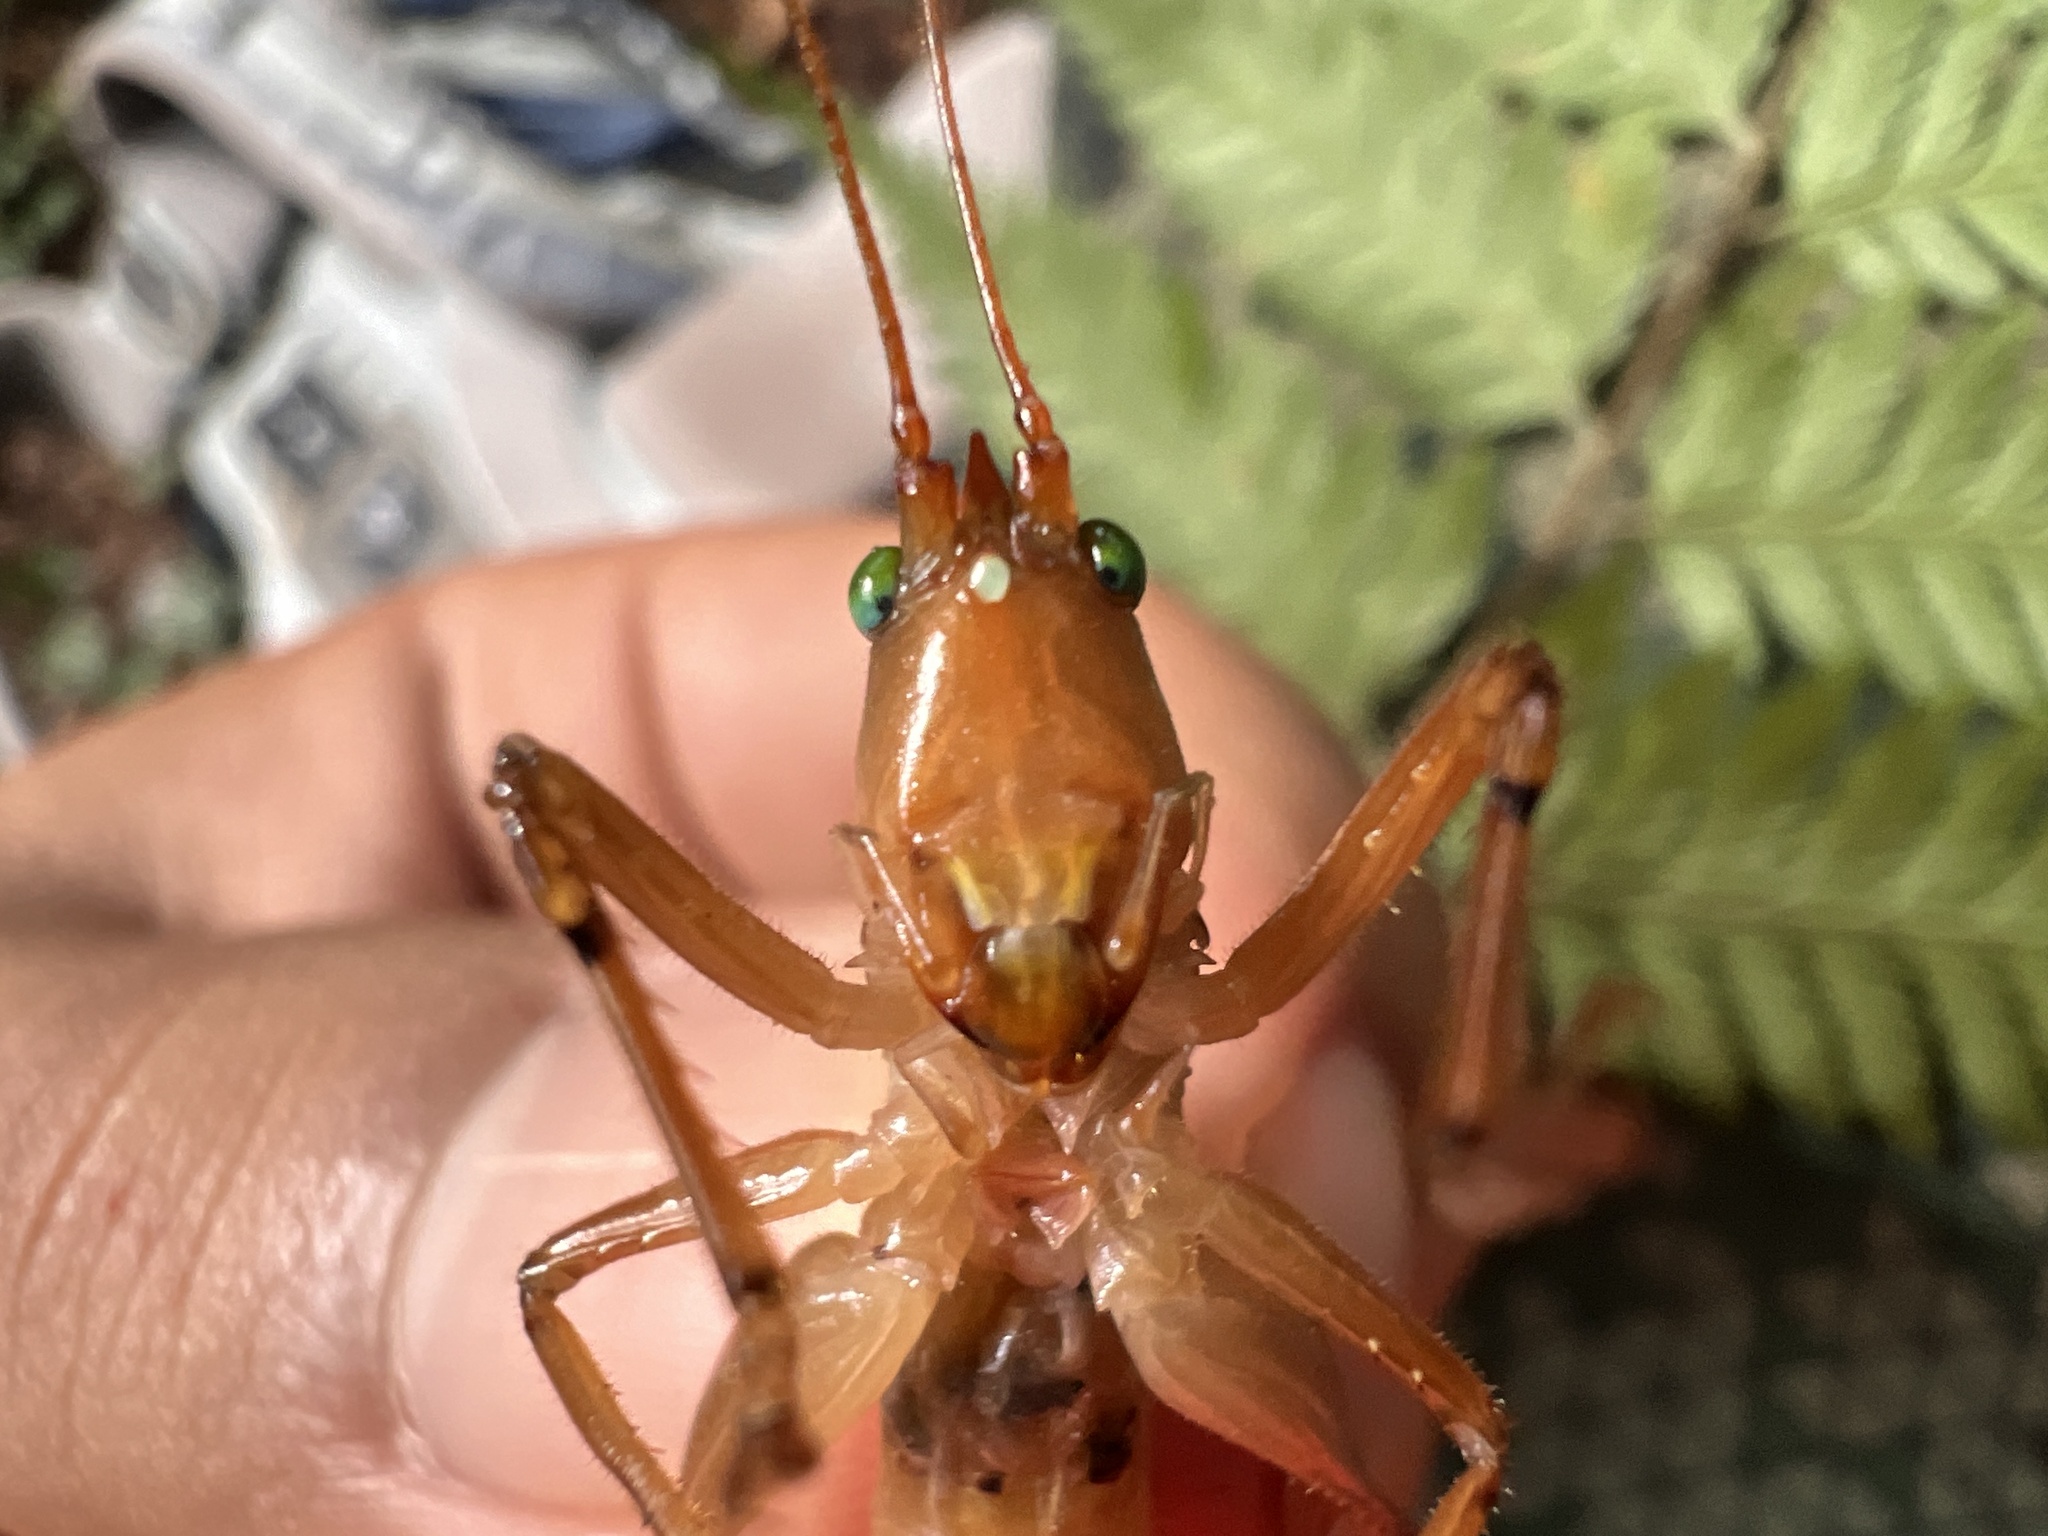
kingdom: Animalia
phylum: Arthropoda
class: Insecta
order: Orthoptera
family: Tettigoniidae
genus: Iaratrox
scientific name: Iaratrox maculata
